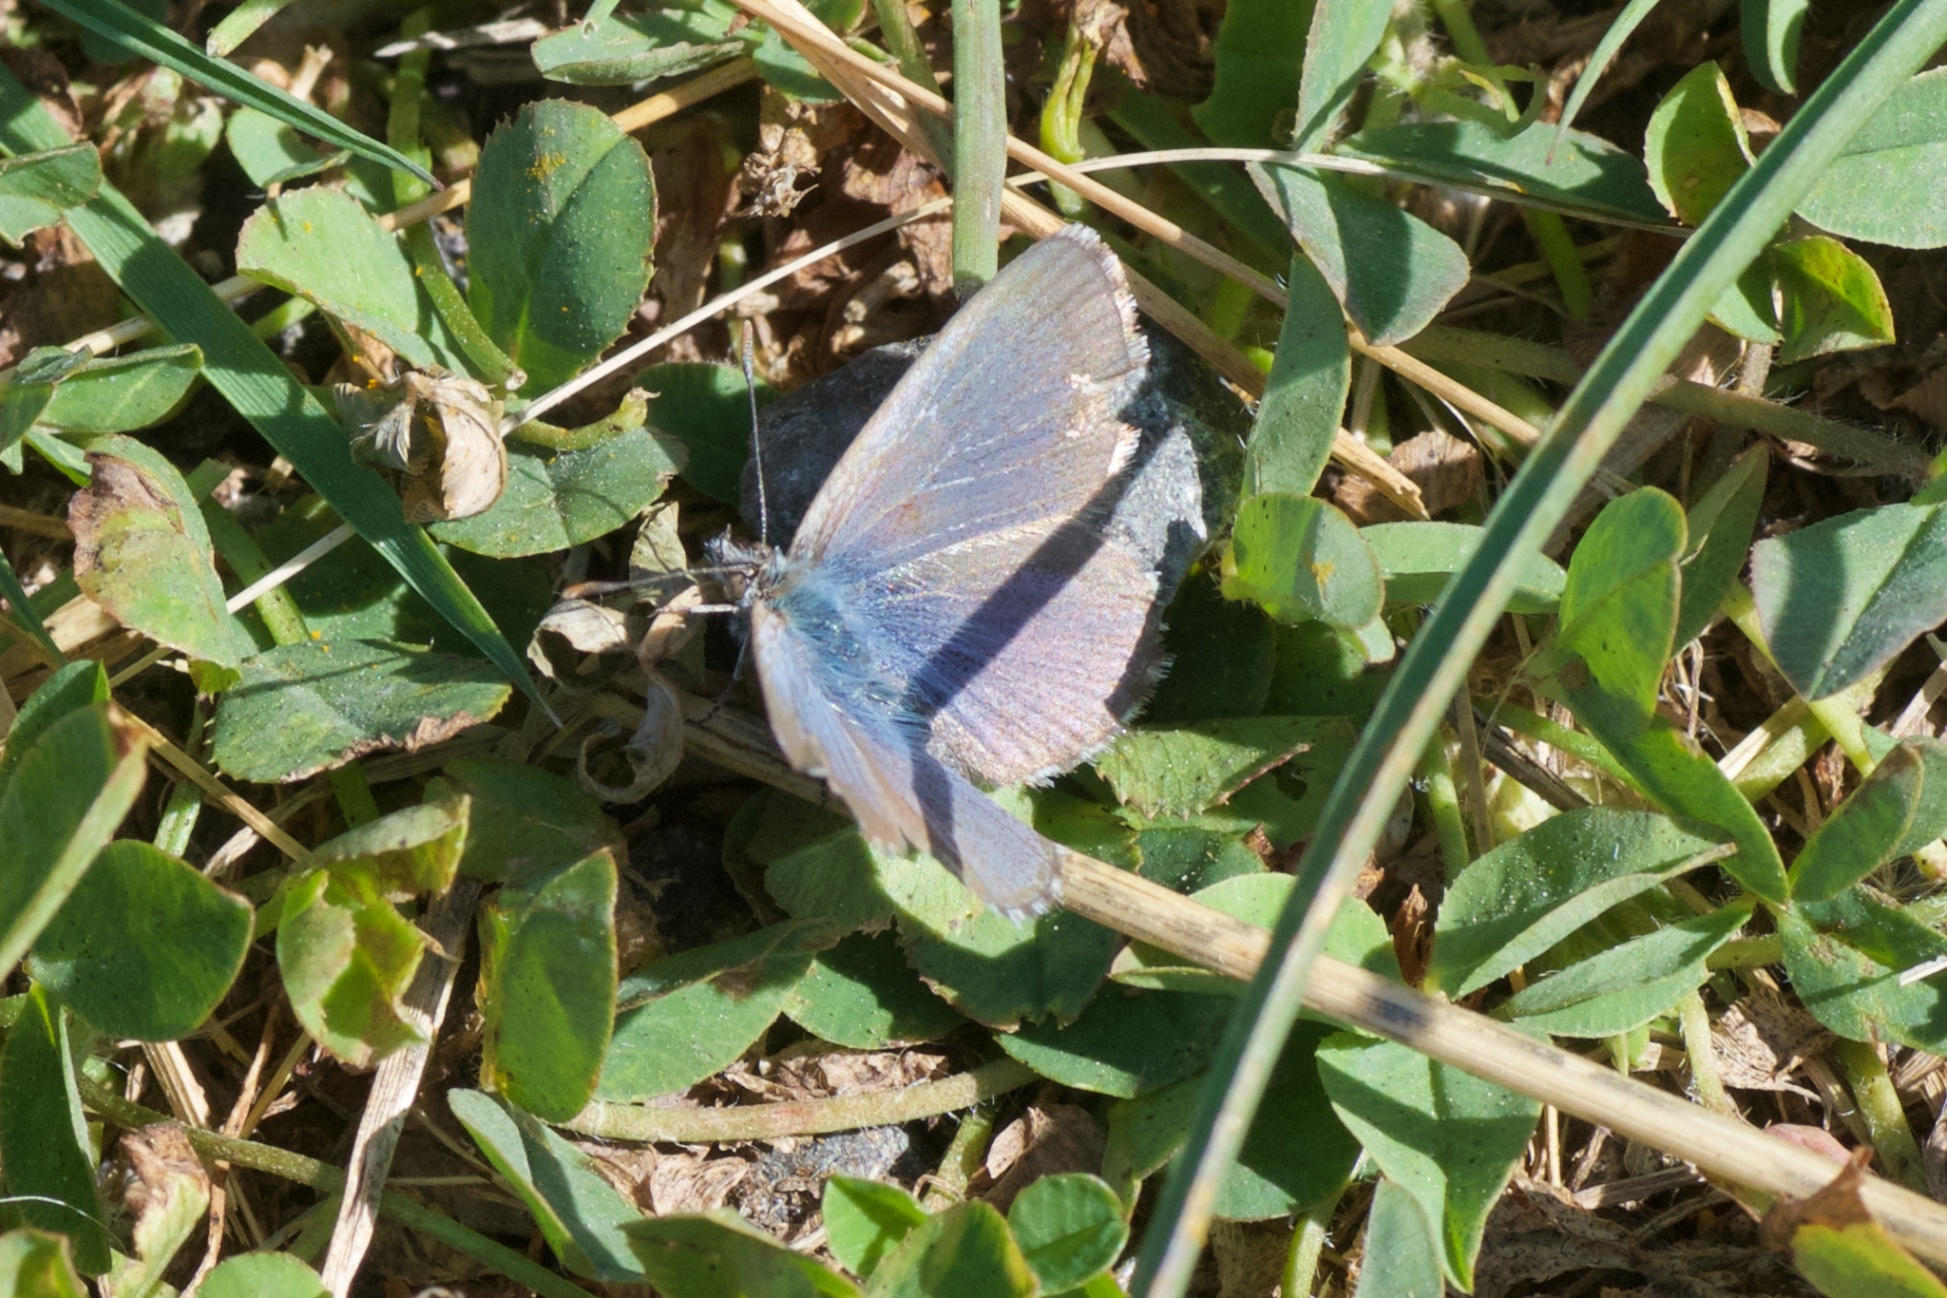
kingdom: Animalia
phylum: Arthropoda
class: Insecta
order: Lepidoptera
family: Lycaenidae
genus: Zizina
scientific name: Zizina oxleyi
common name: Southern blue
